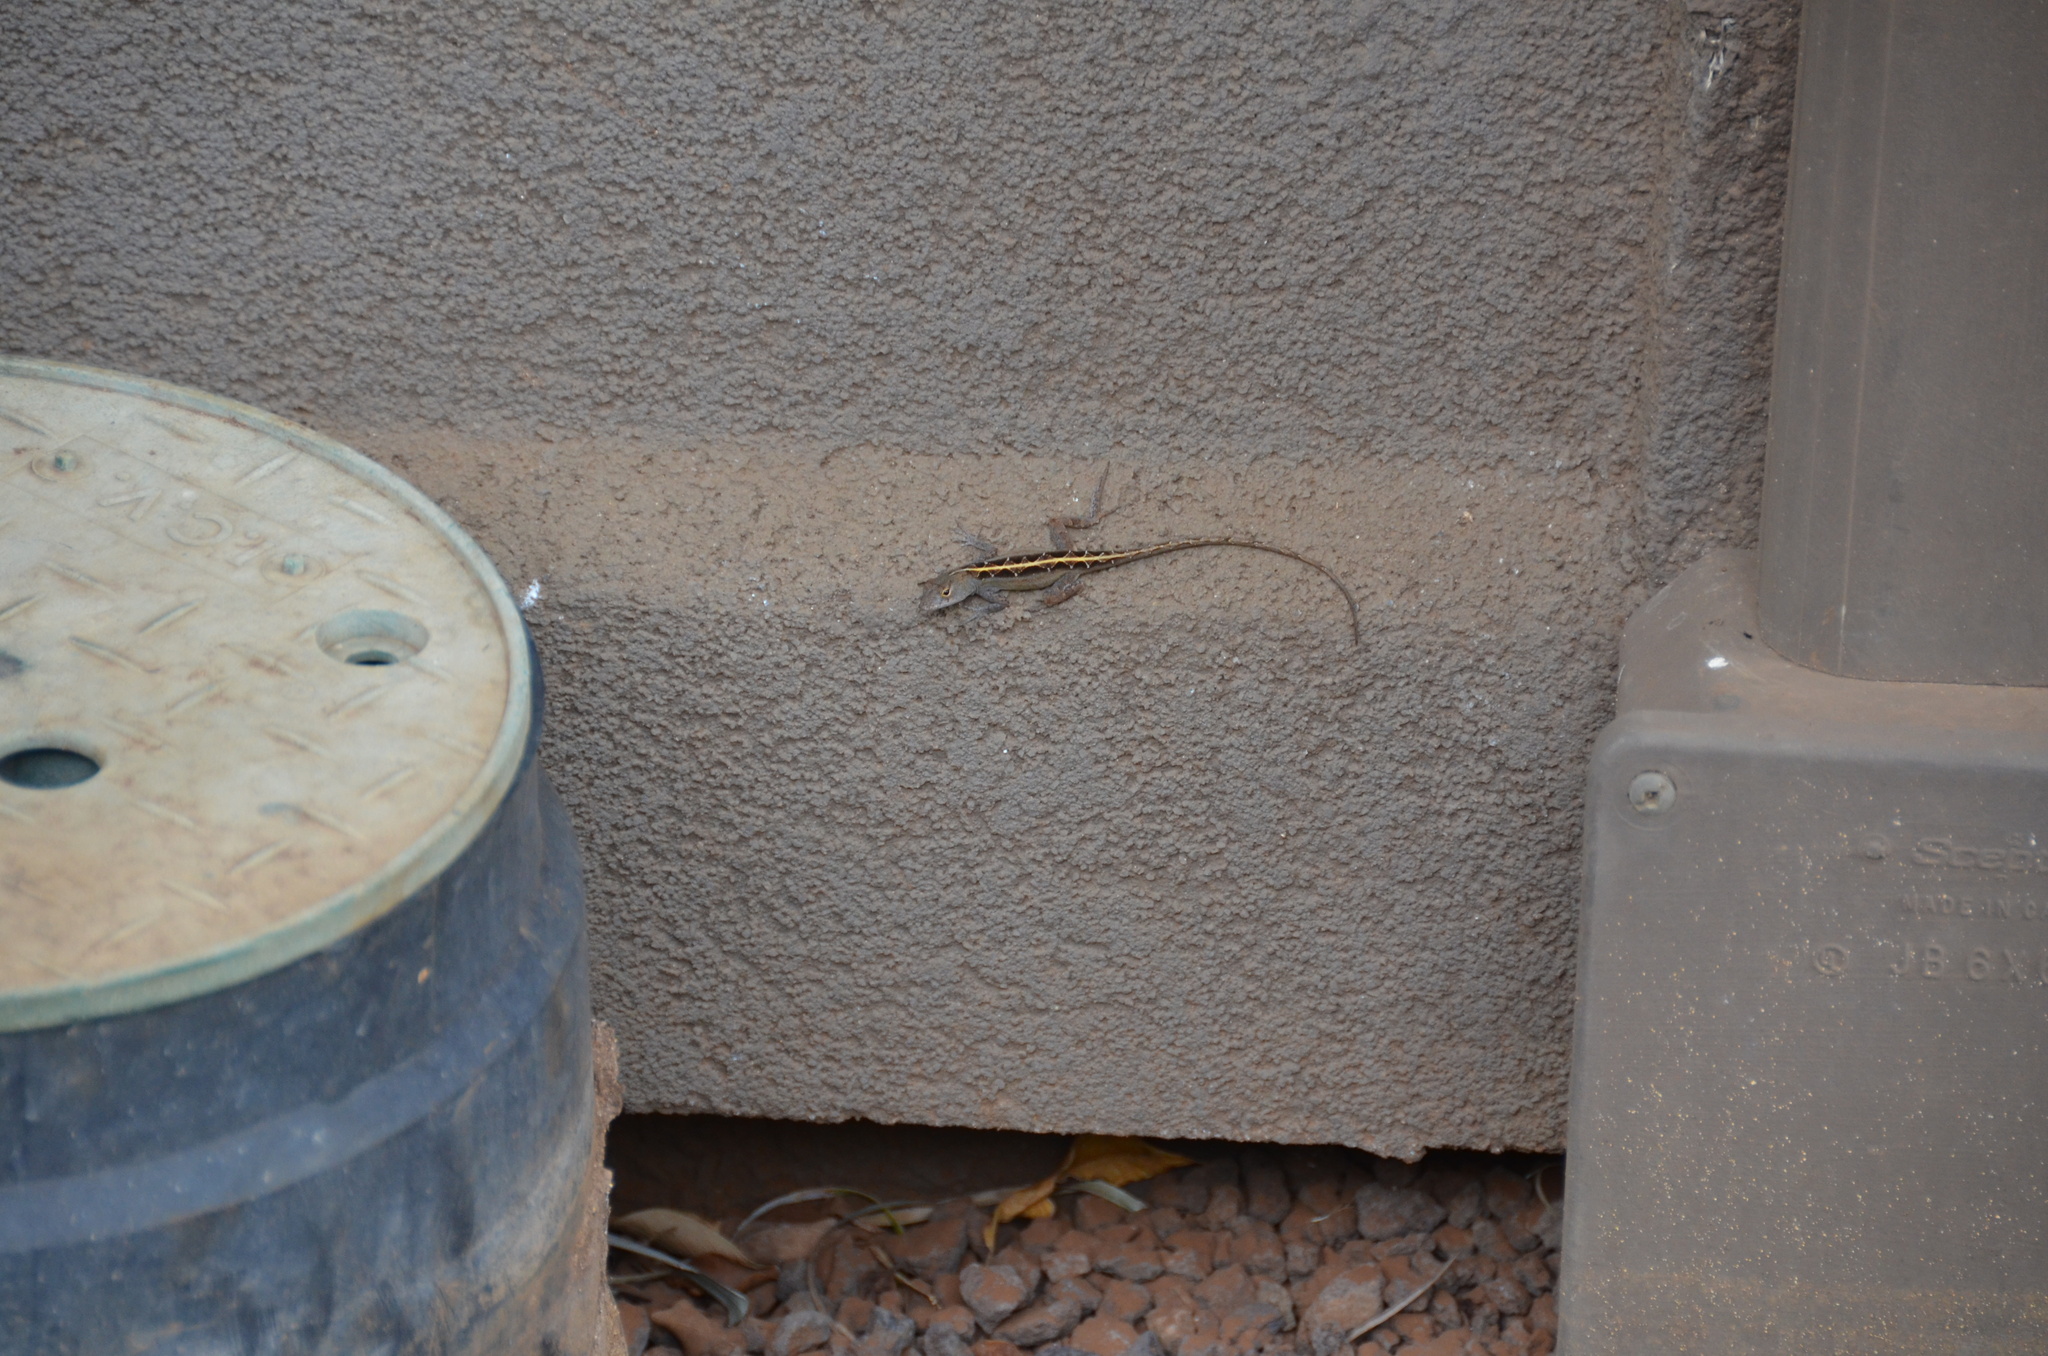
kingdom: Animalia
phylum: Chordata
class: Squamata
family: Dactyloidae
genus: Anolis
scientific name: Anolis sagrei
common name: Brown anole
